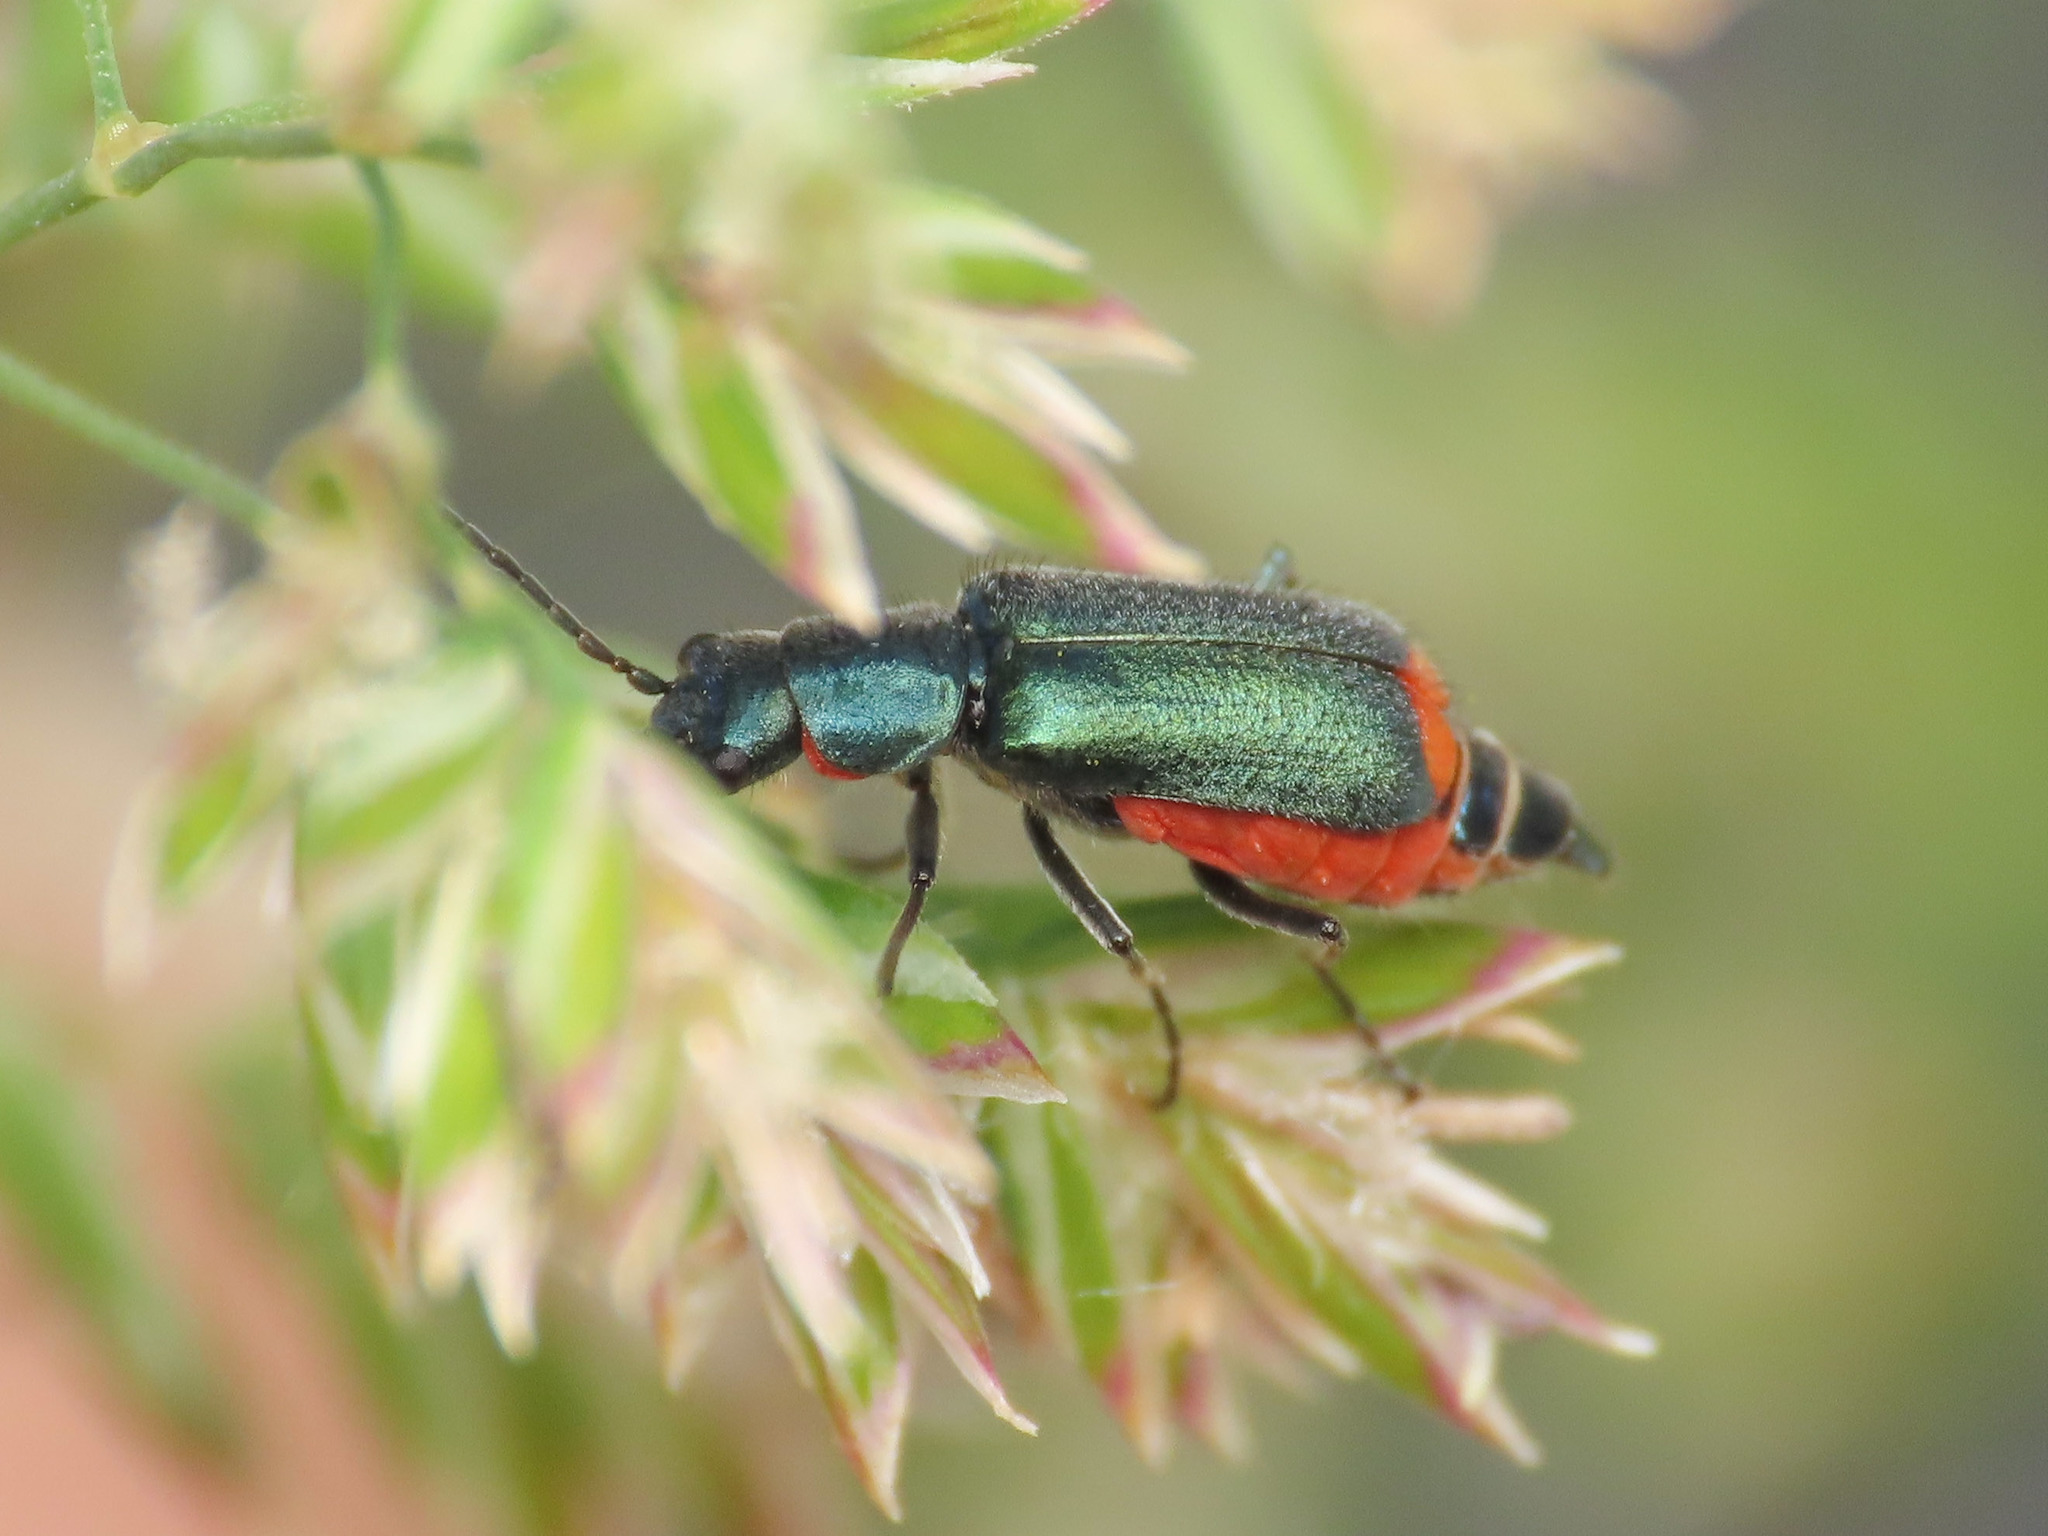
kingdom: Animalia
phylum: Arthropoda
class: Insecta
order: Coleoptera
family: Malachiidae
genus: Clanoptilus
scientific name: Clanoptilus spinipennis
